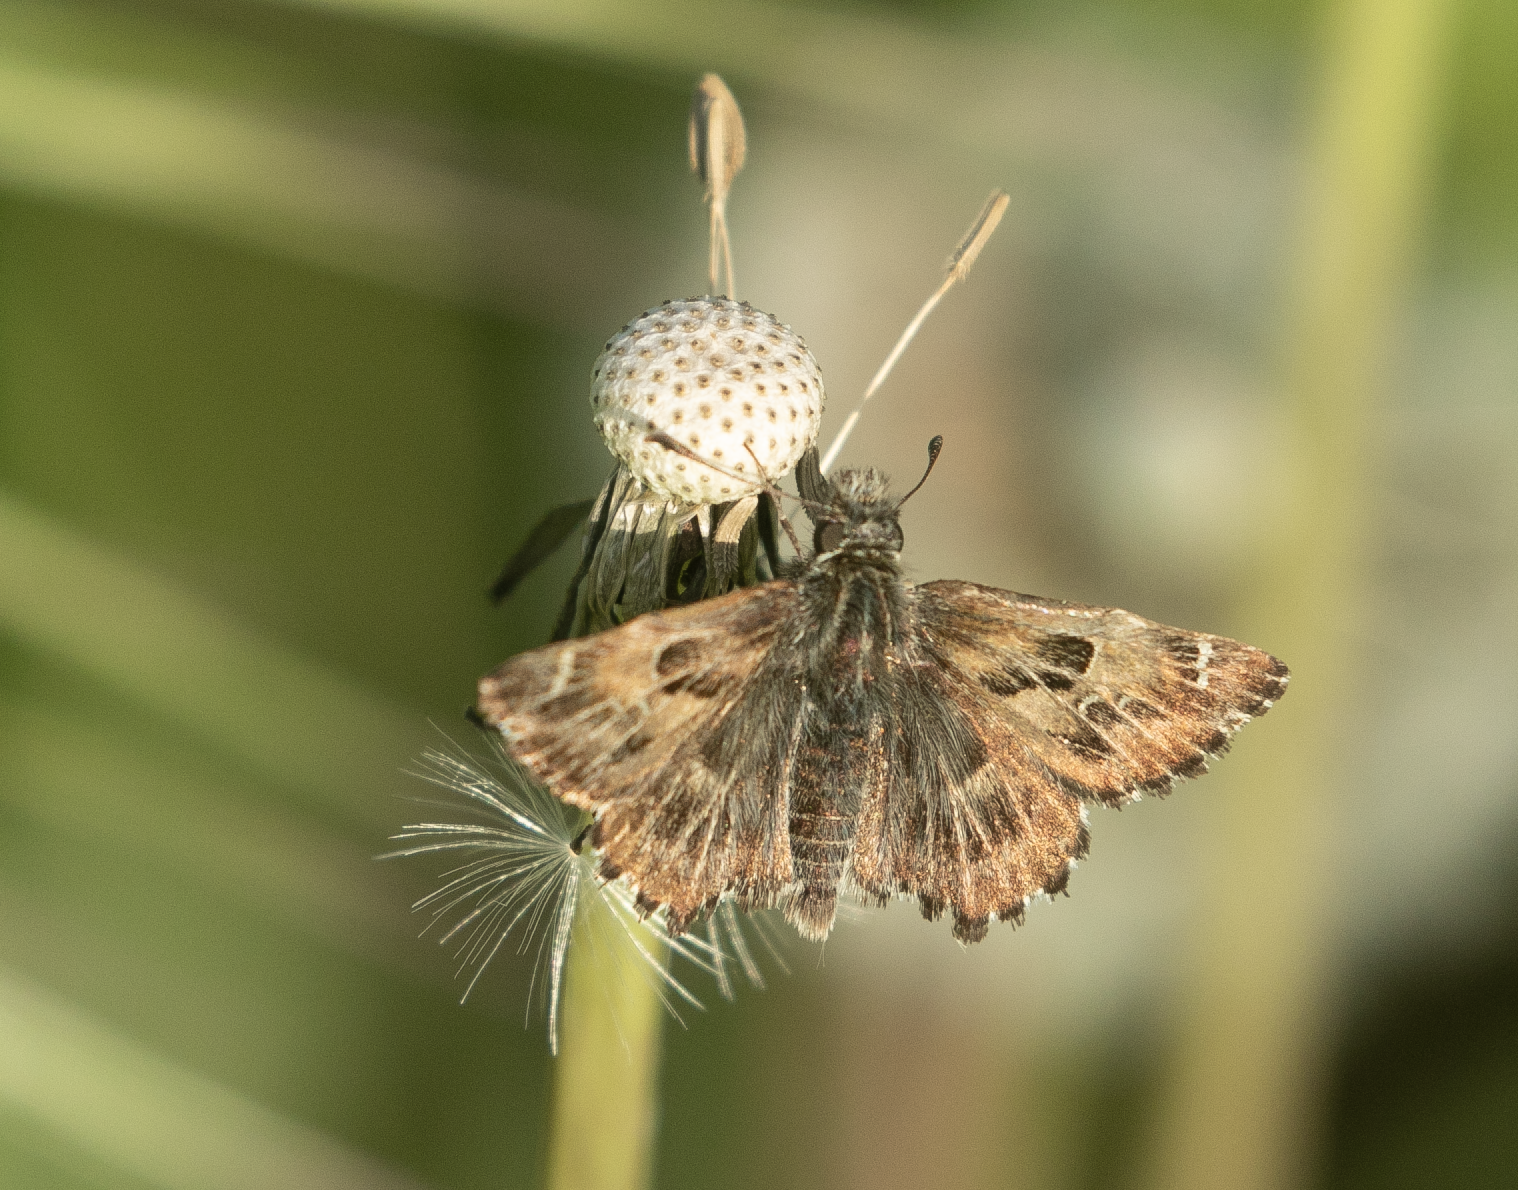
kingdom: Animalia
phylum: Arthropoda
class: Insecta
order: Lepidoptera
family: Hesperiidae
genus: Carcharodus
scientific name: Carcharodus alceae
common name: Mallow skipper
